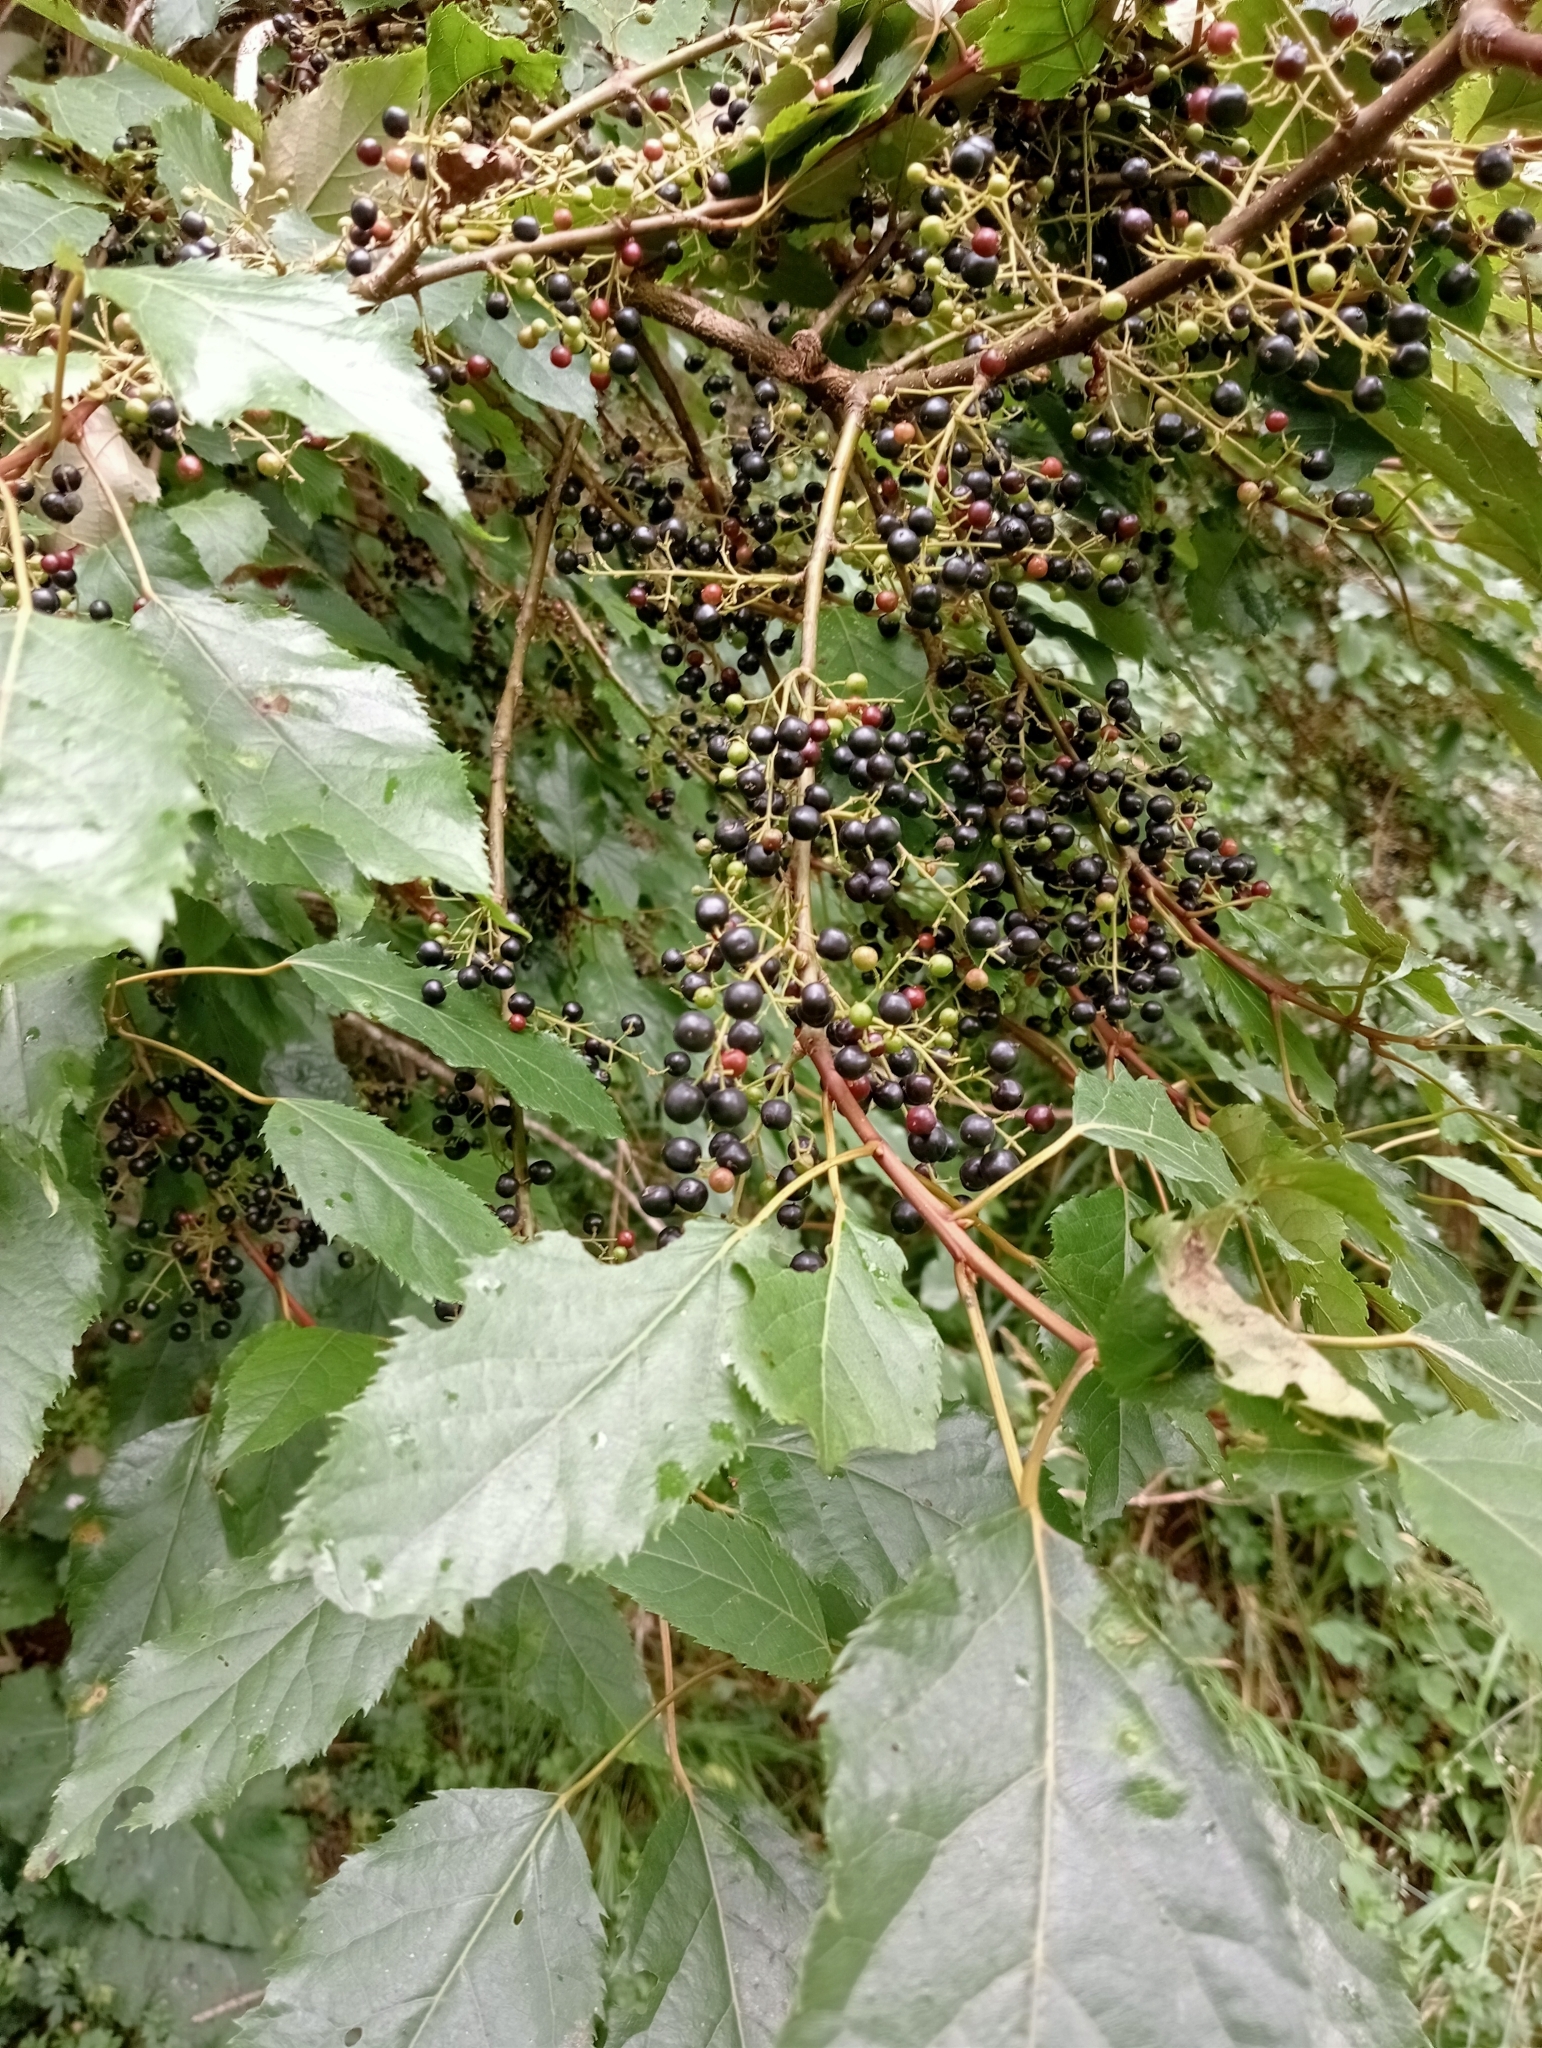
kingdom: Plantae
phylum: Tracheophyta
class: Magnoliopsida
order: Oxalidales
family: Elaeocarpaceae
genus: Aristotelia
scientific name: Aristotelia serrata
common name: New zealand wineberry
